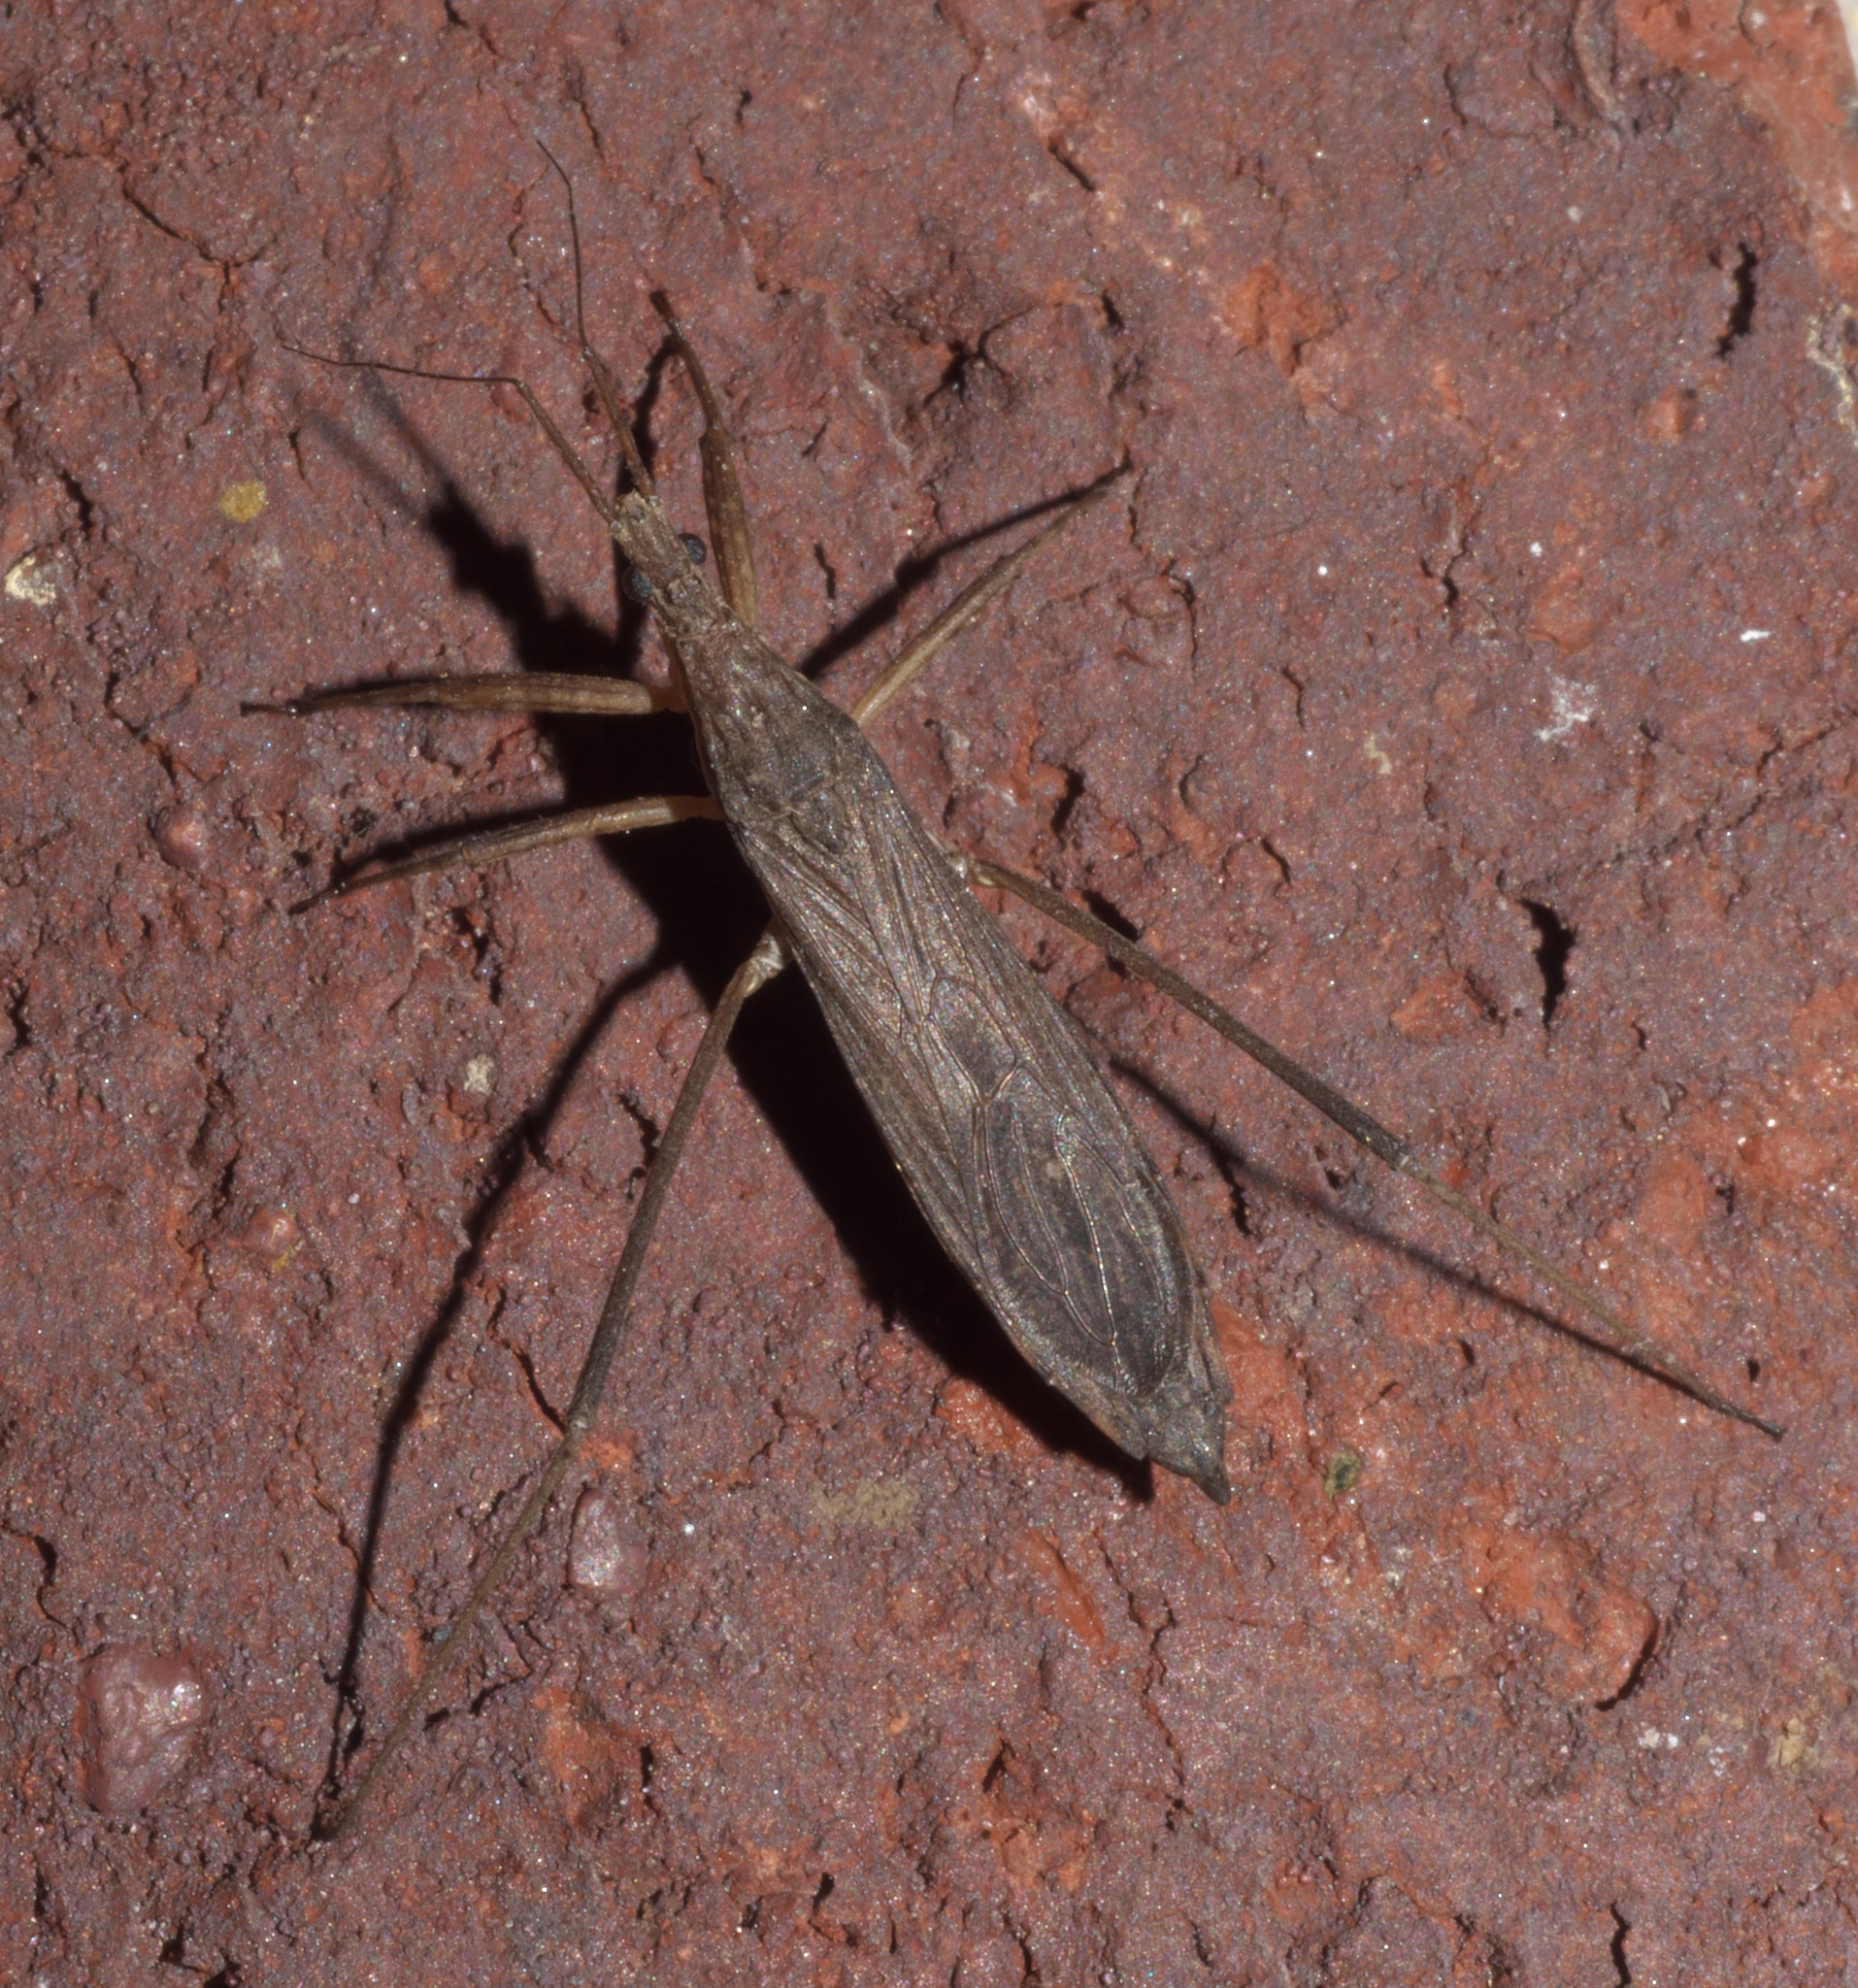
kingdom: Animalia
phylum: Arthropoda
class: Insecta
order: Hemiptera
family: Reduviidae
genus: Pygolampis
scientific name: Pygolampis pectoralis
